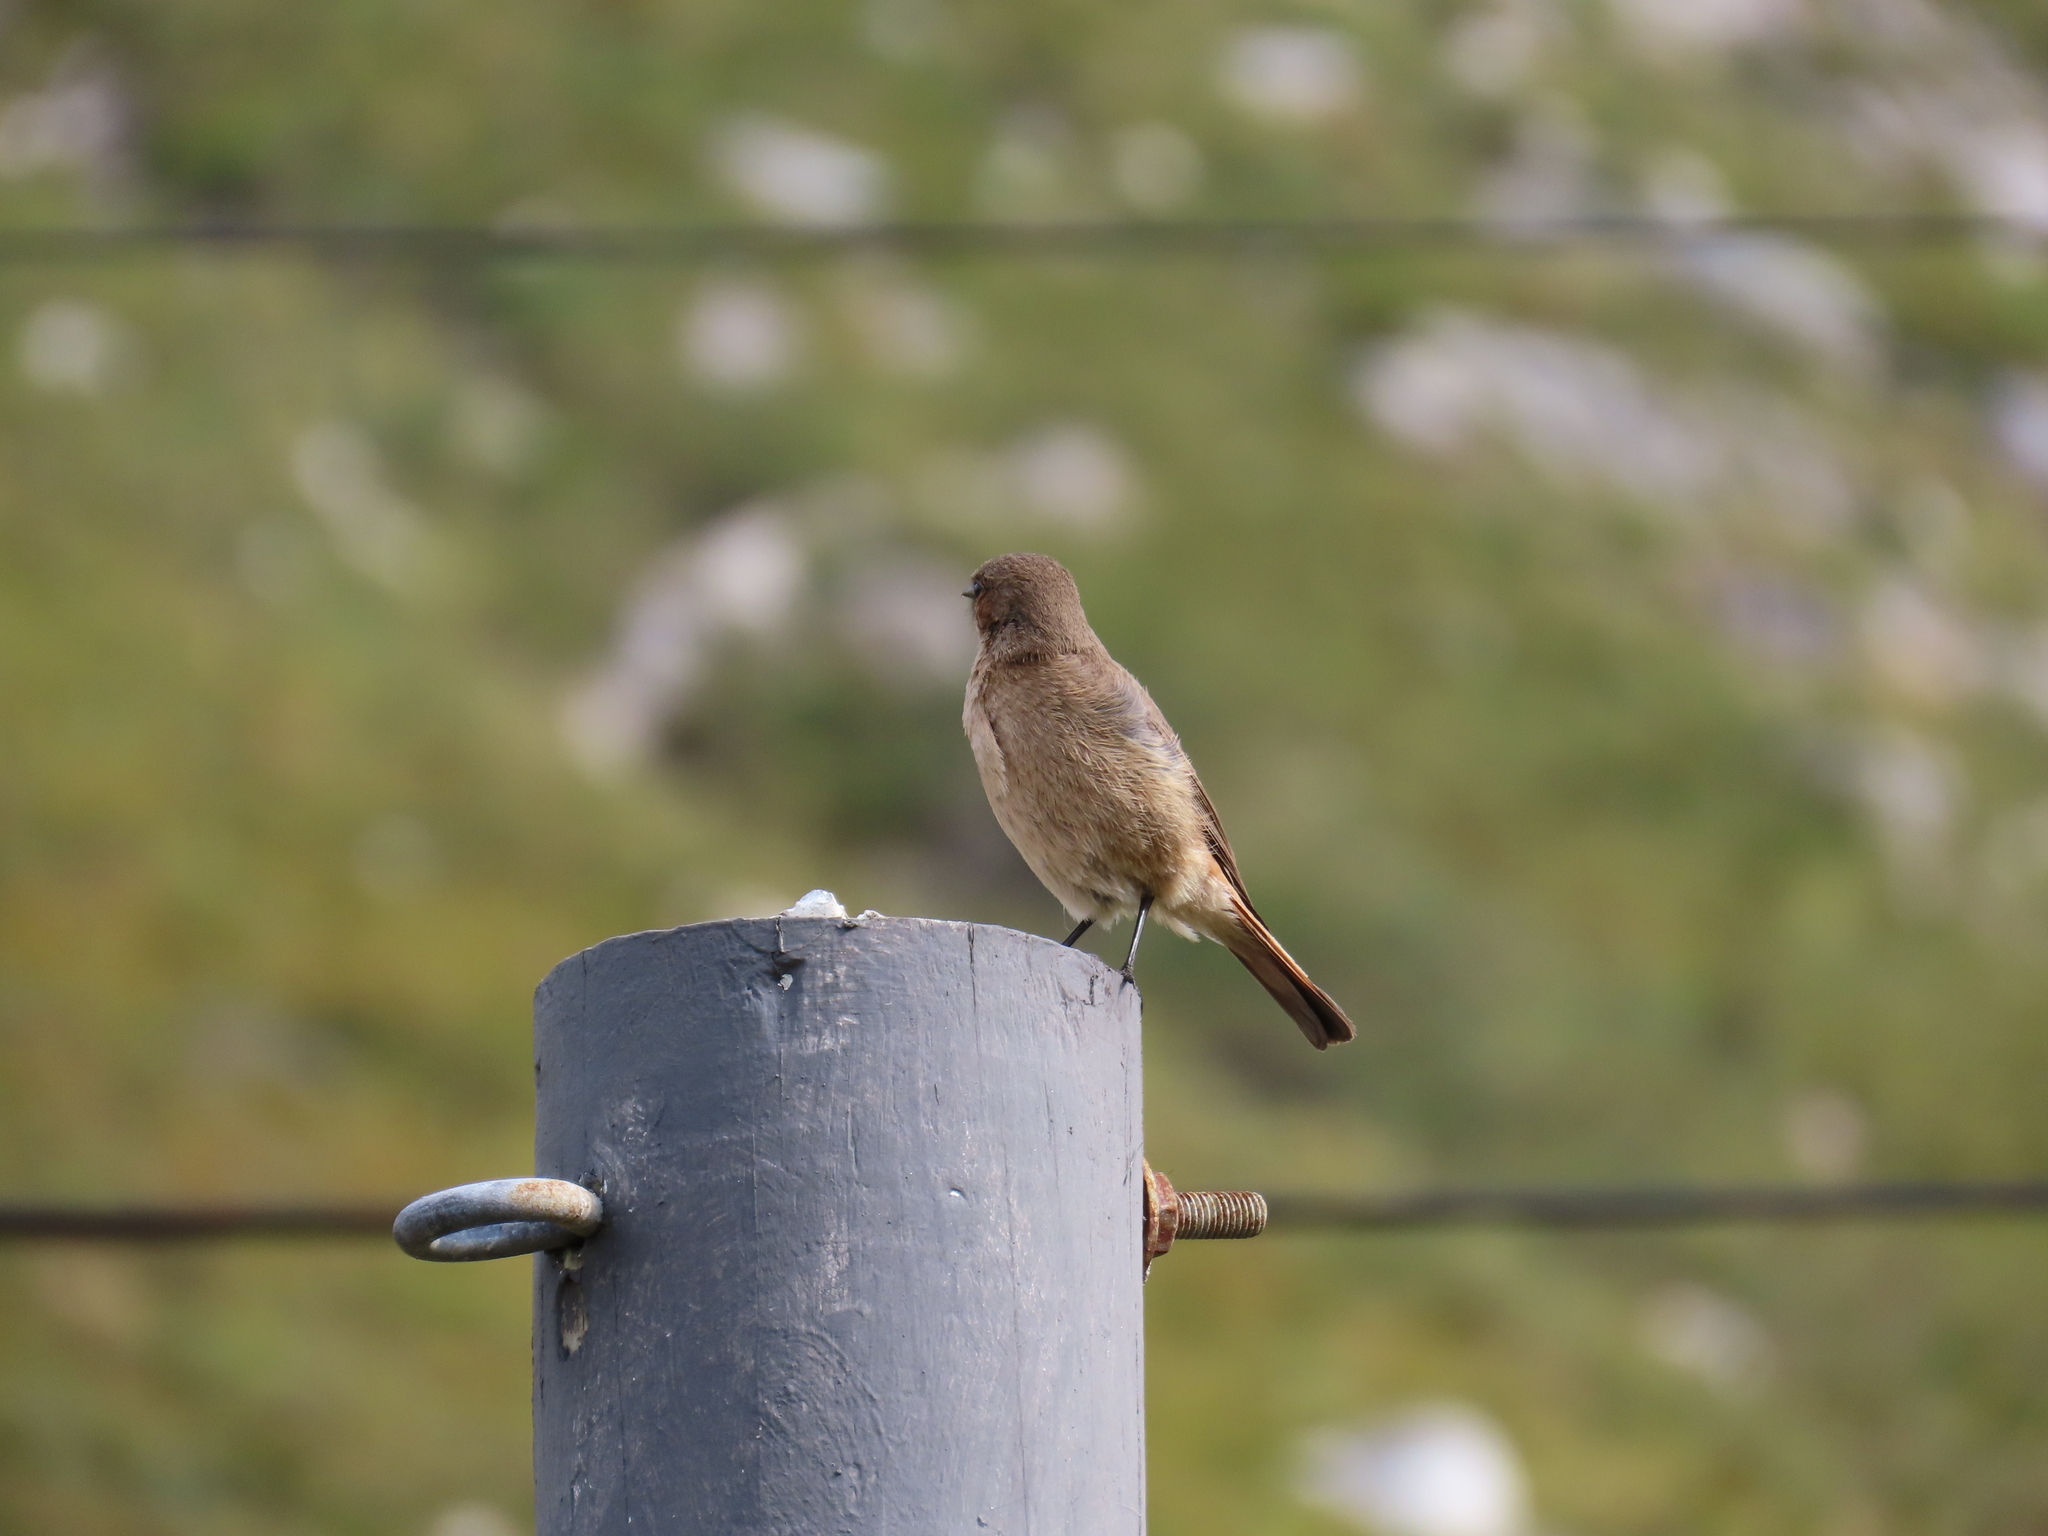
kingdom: Animalia
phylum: Chordata
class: Aves
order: Passeriformes
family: Muscicapidae
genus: Oenanthe
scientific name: Oenanthe familiaris
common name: Familiar chat
